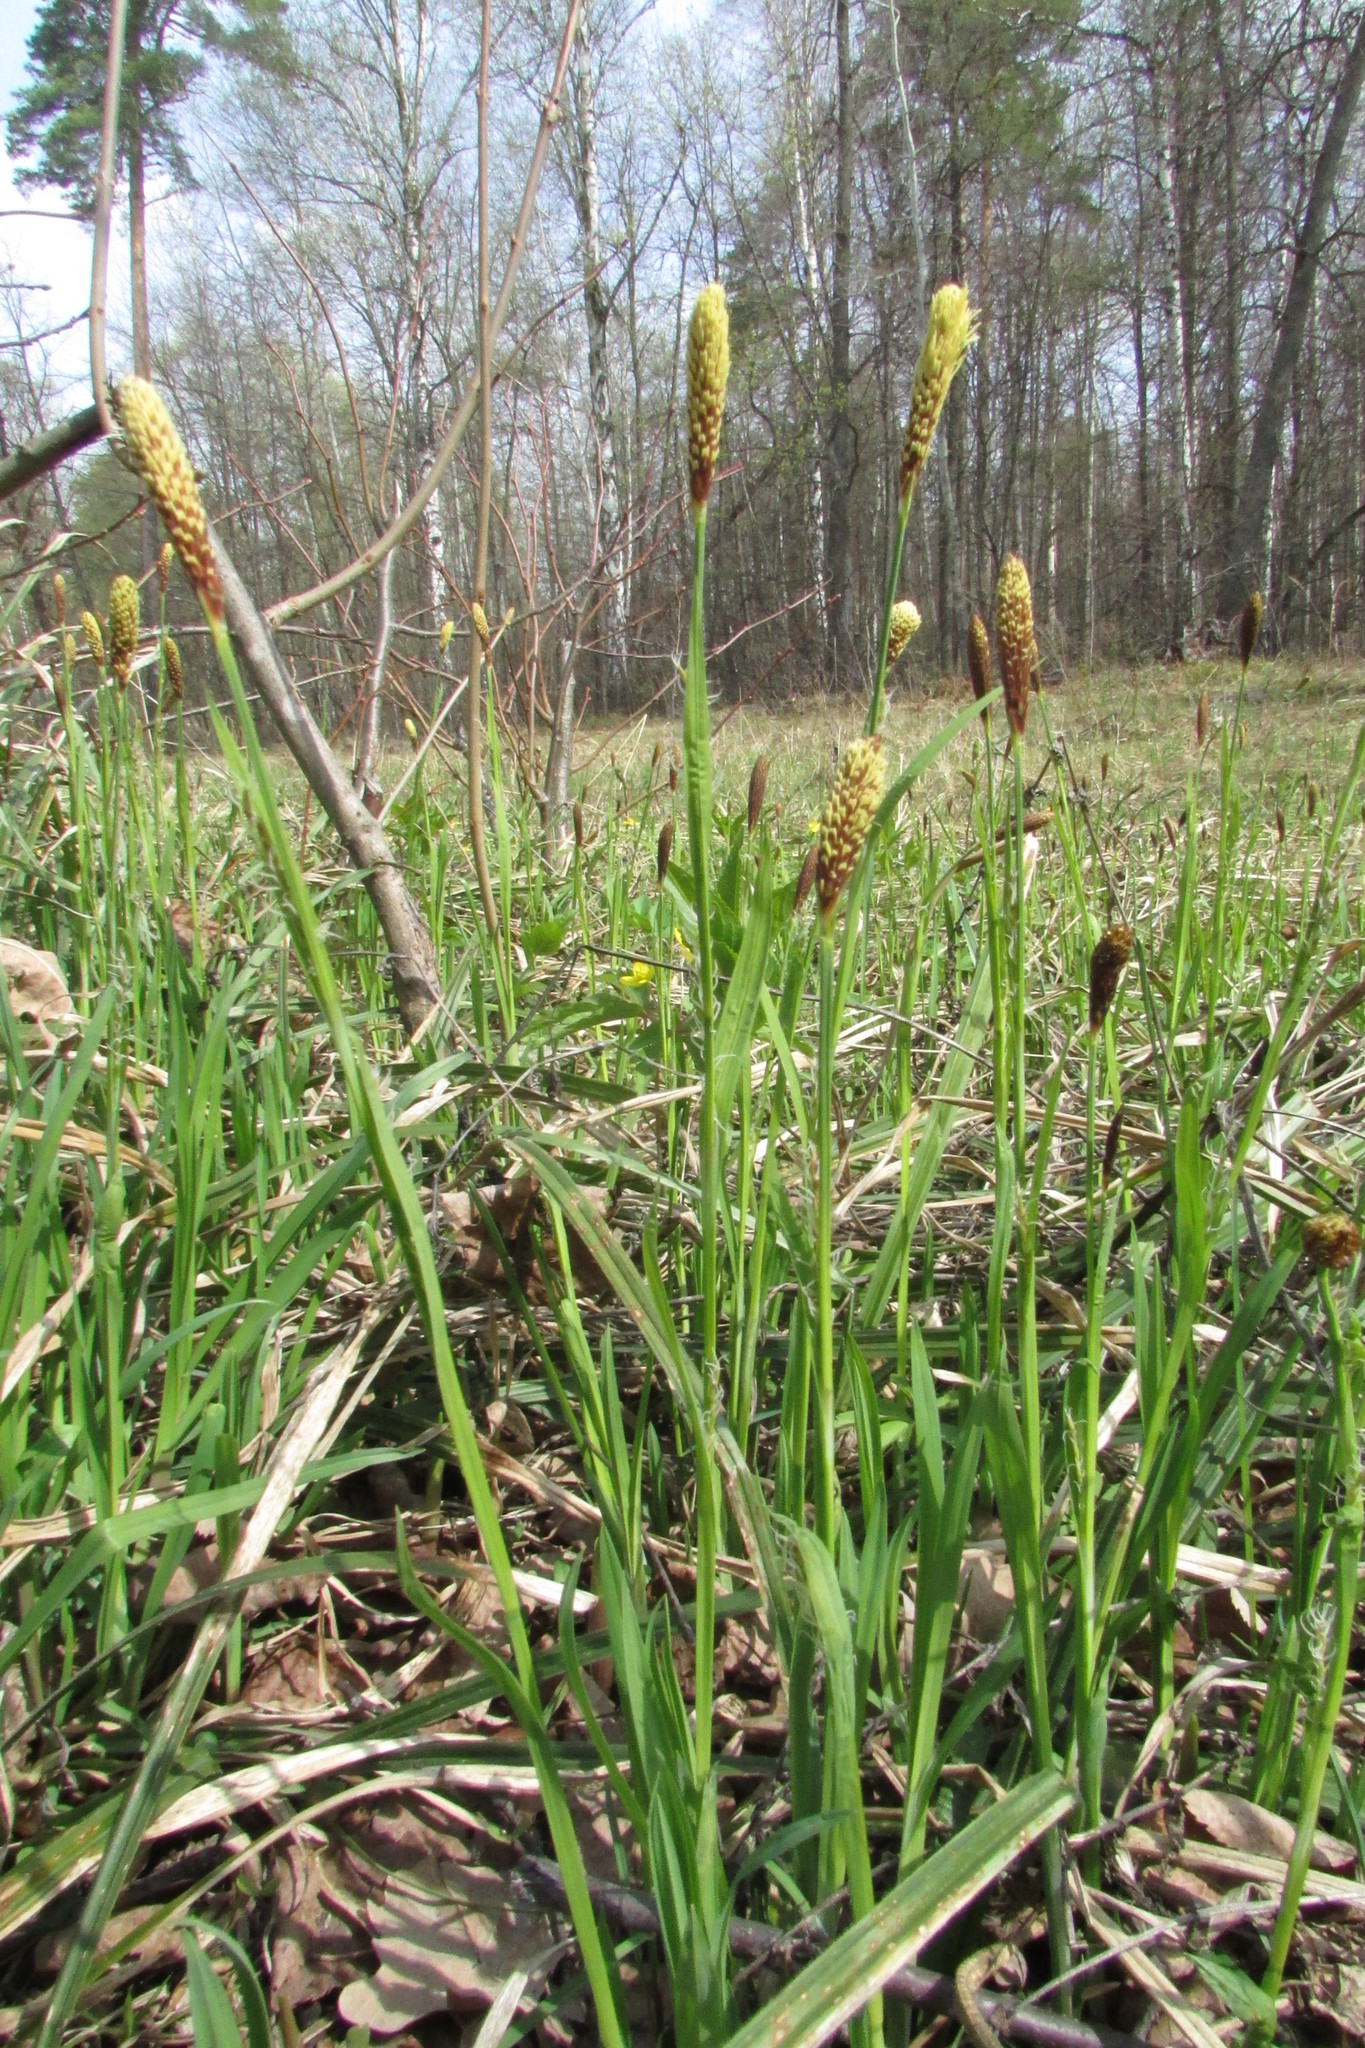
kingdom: Plantae
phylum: Tracheophyta
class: Liliopsida
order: Poales
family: Cyperaceae
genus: Carex
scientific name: Carex pilosa
